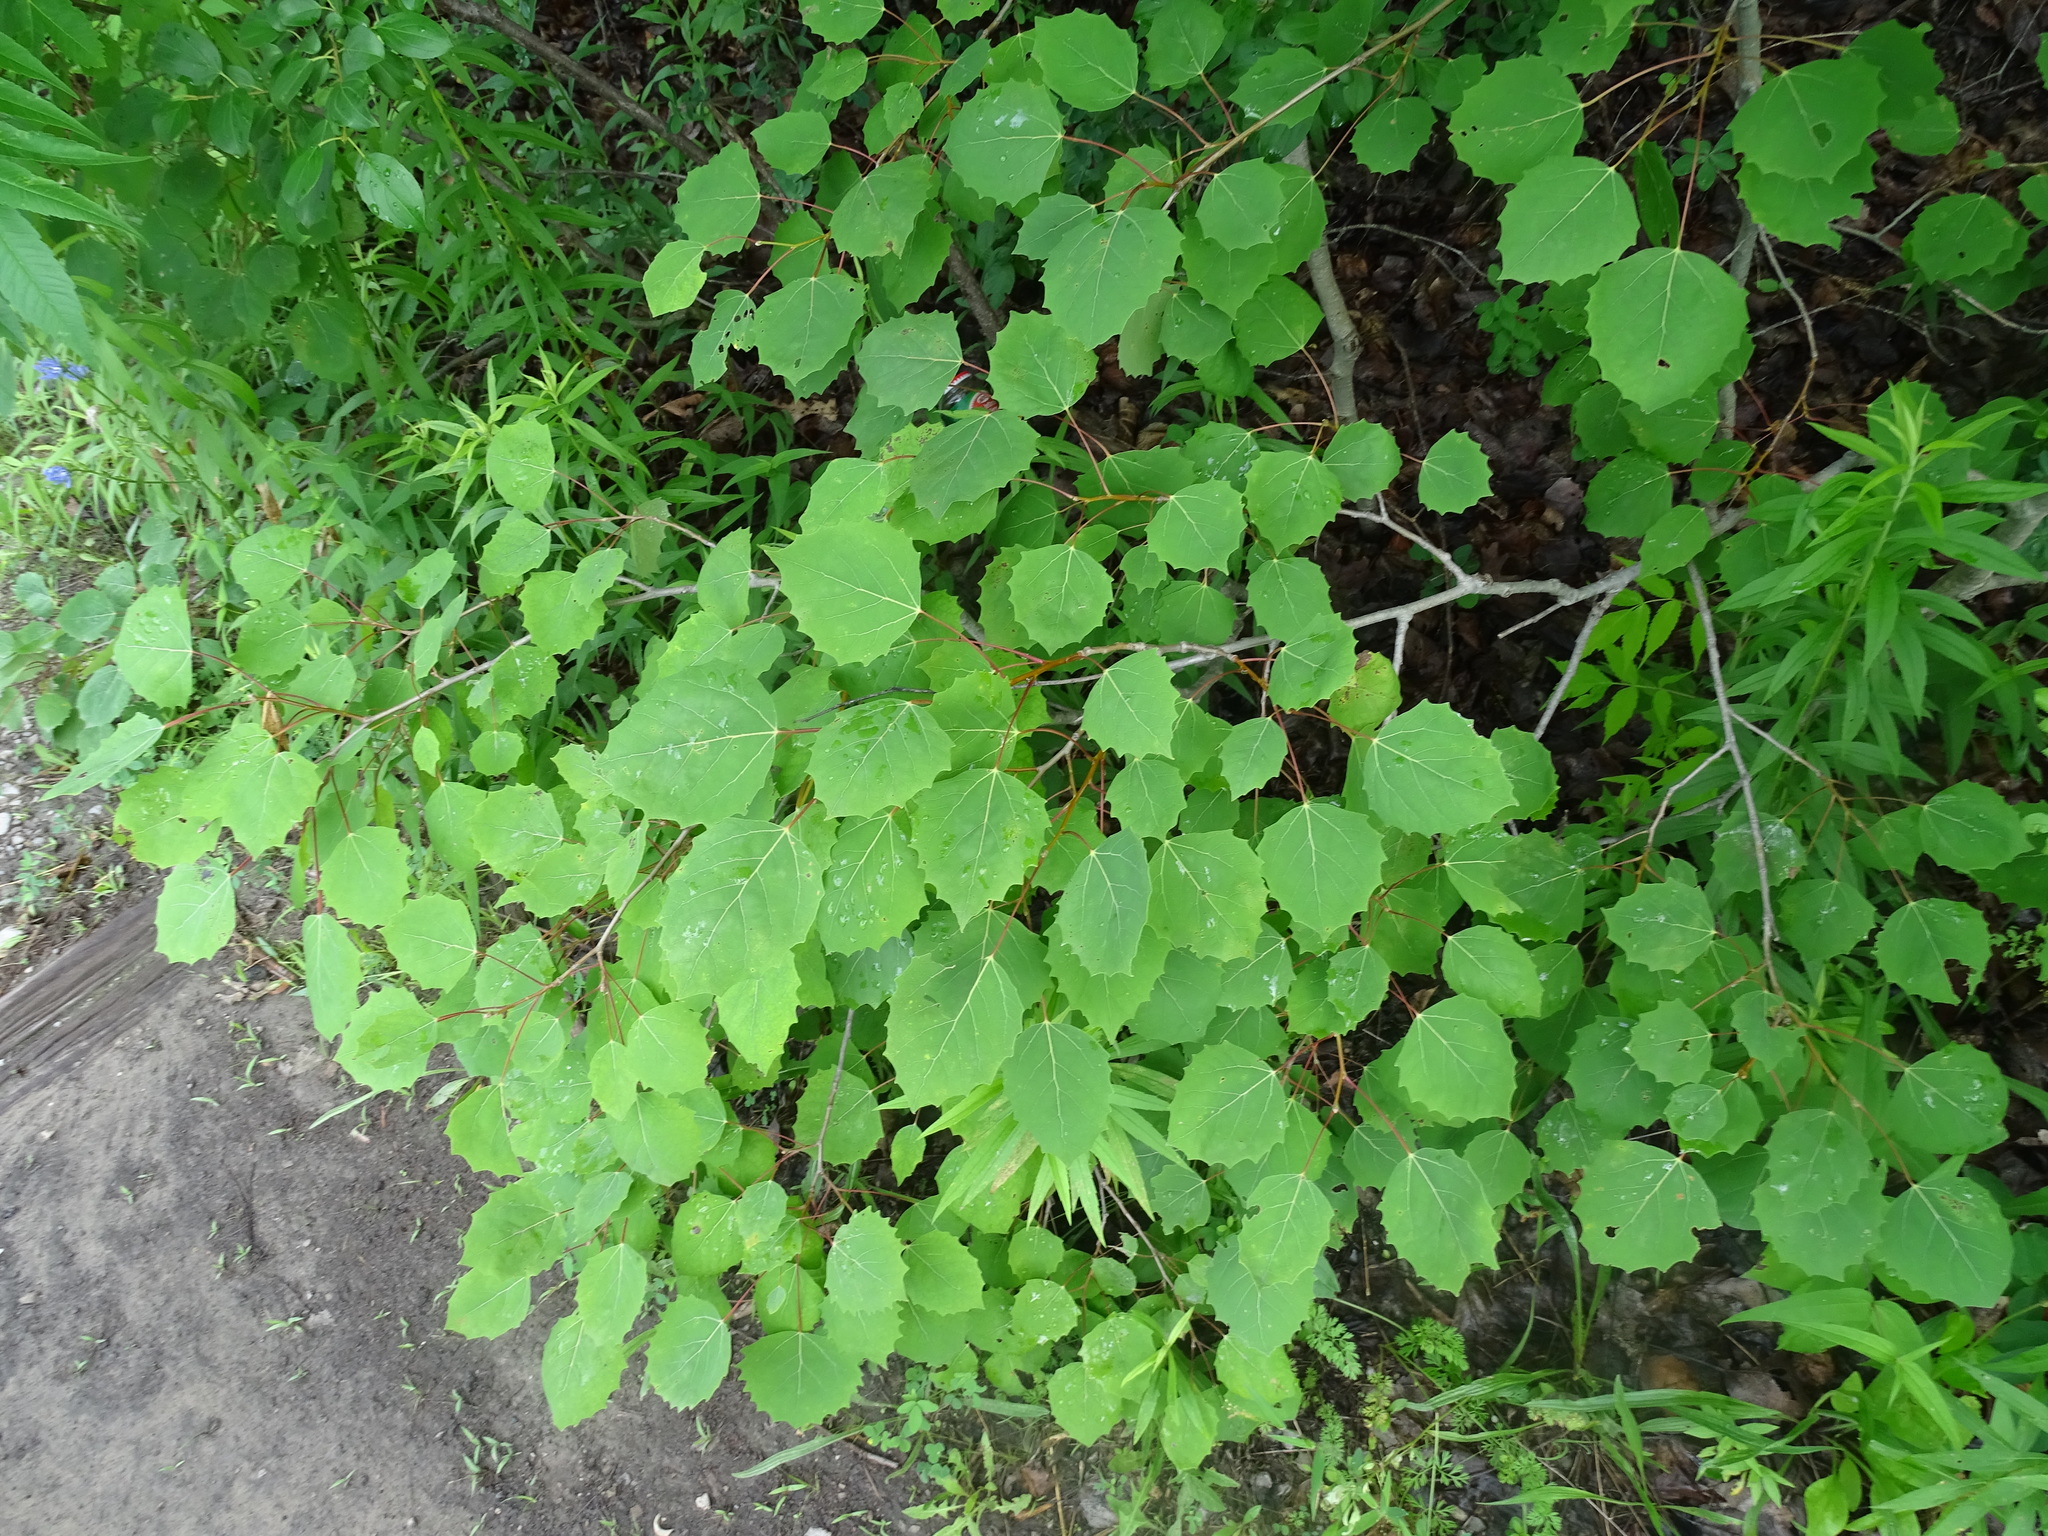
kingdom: Plantae
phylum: Tracheophyta
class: Magnoliopsida
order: Malpighiales
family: Salicaceae
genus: Populus
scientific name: Populus grandidentata
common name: Bigtooth aspen
